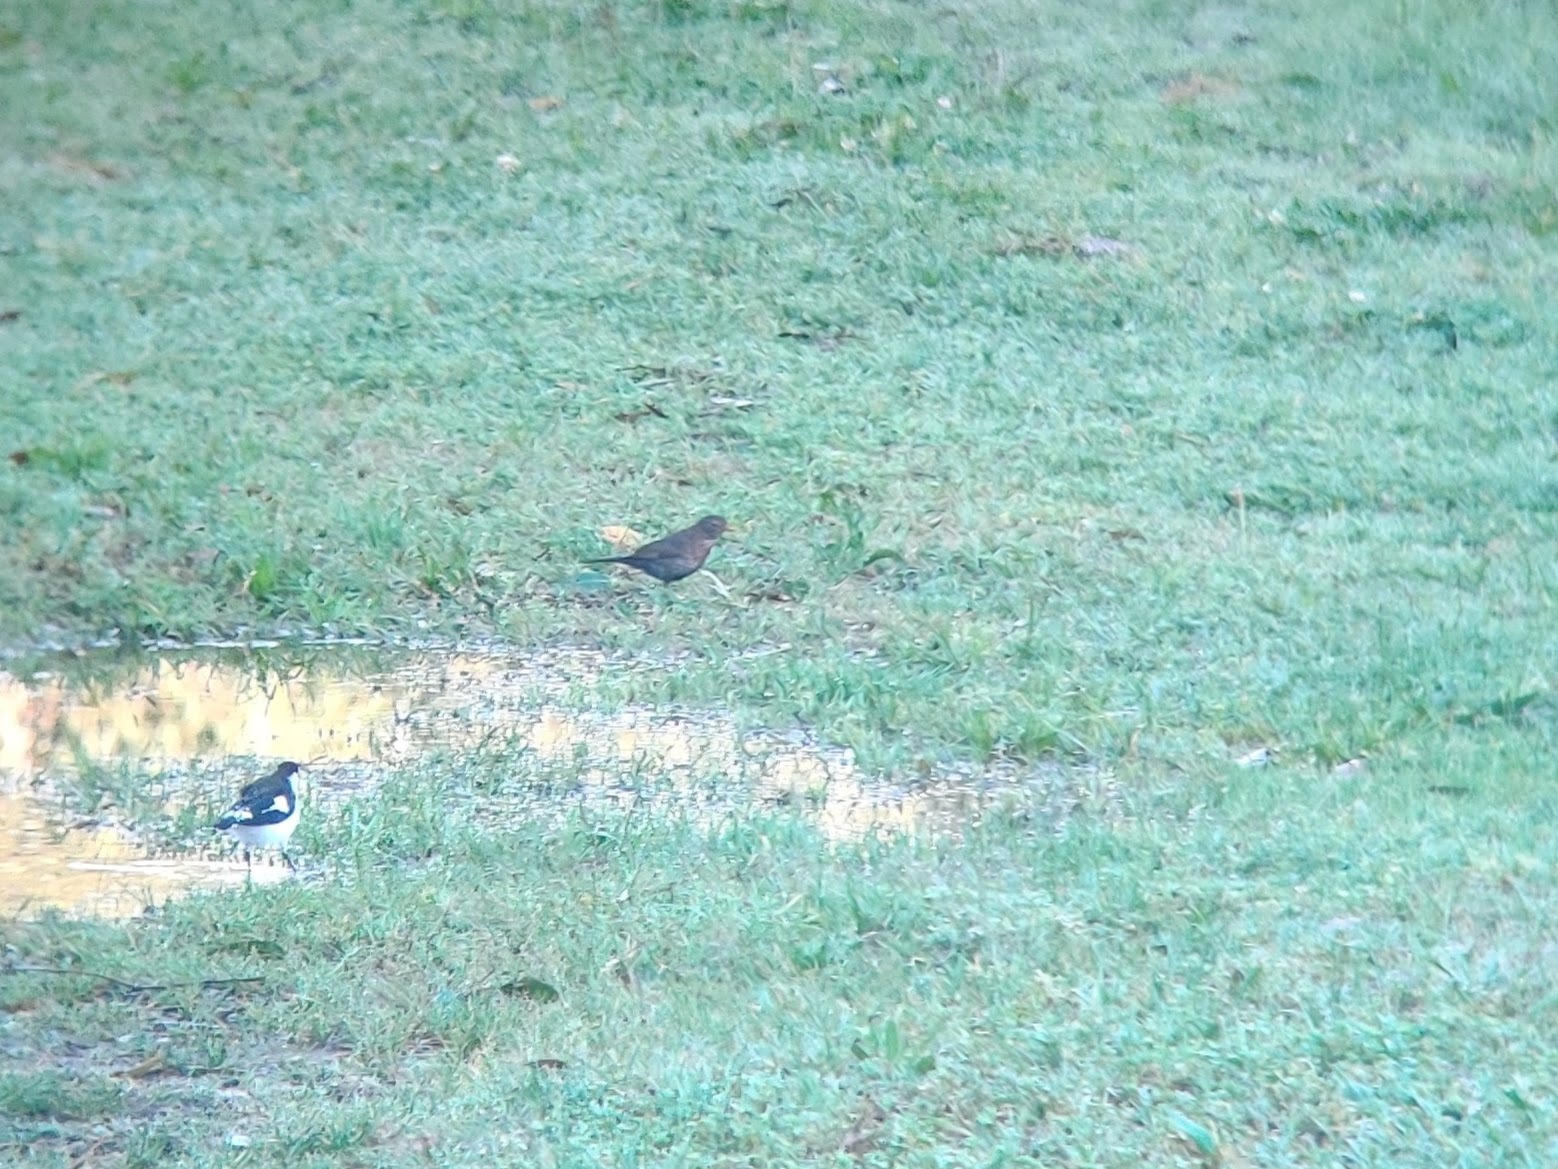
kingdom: Animalia
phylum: Chordata
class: Aves
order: Passeriformes
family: Turdidae
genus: Turdus
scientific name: Turdus merula
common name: Common blackbird
